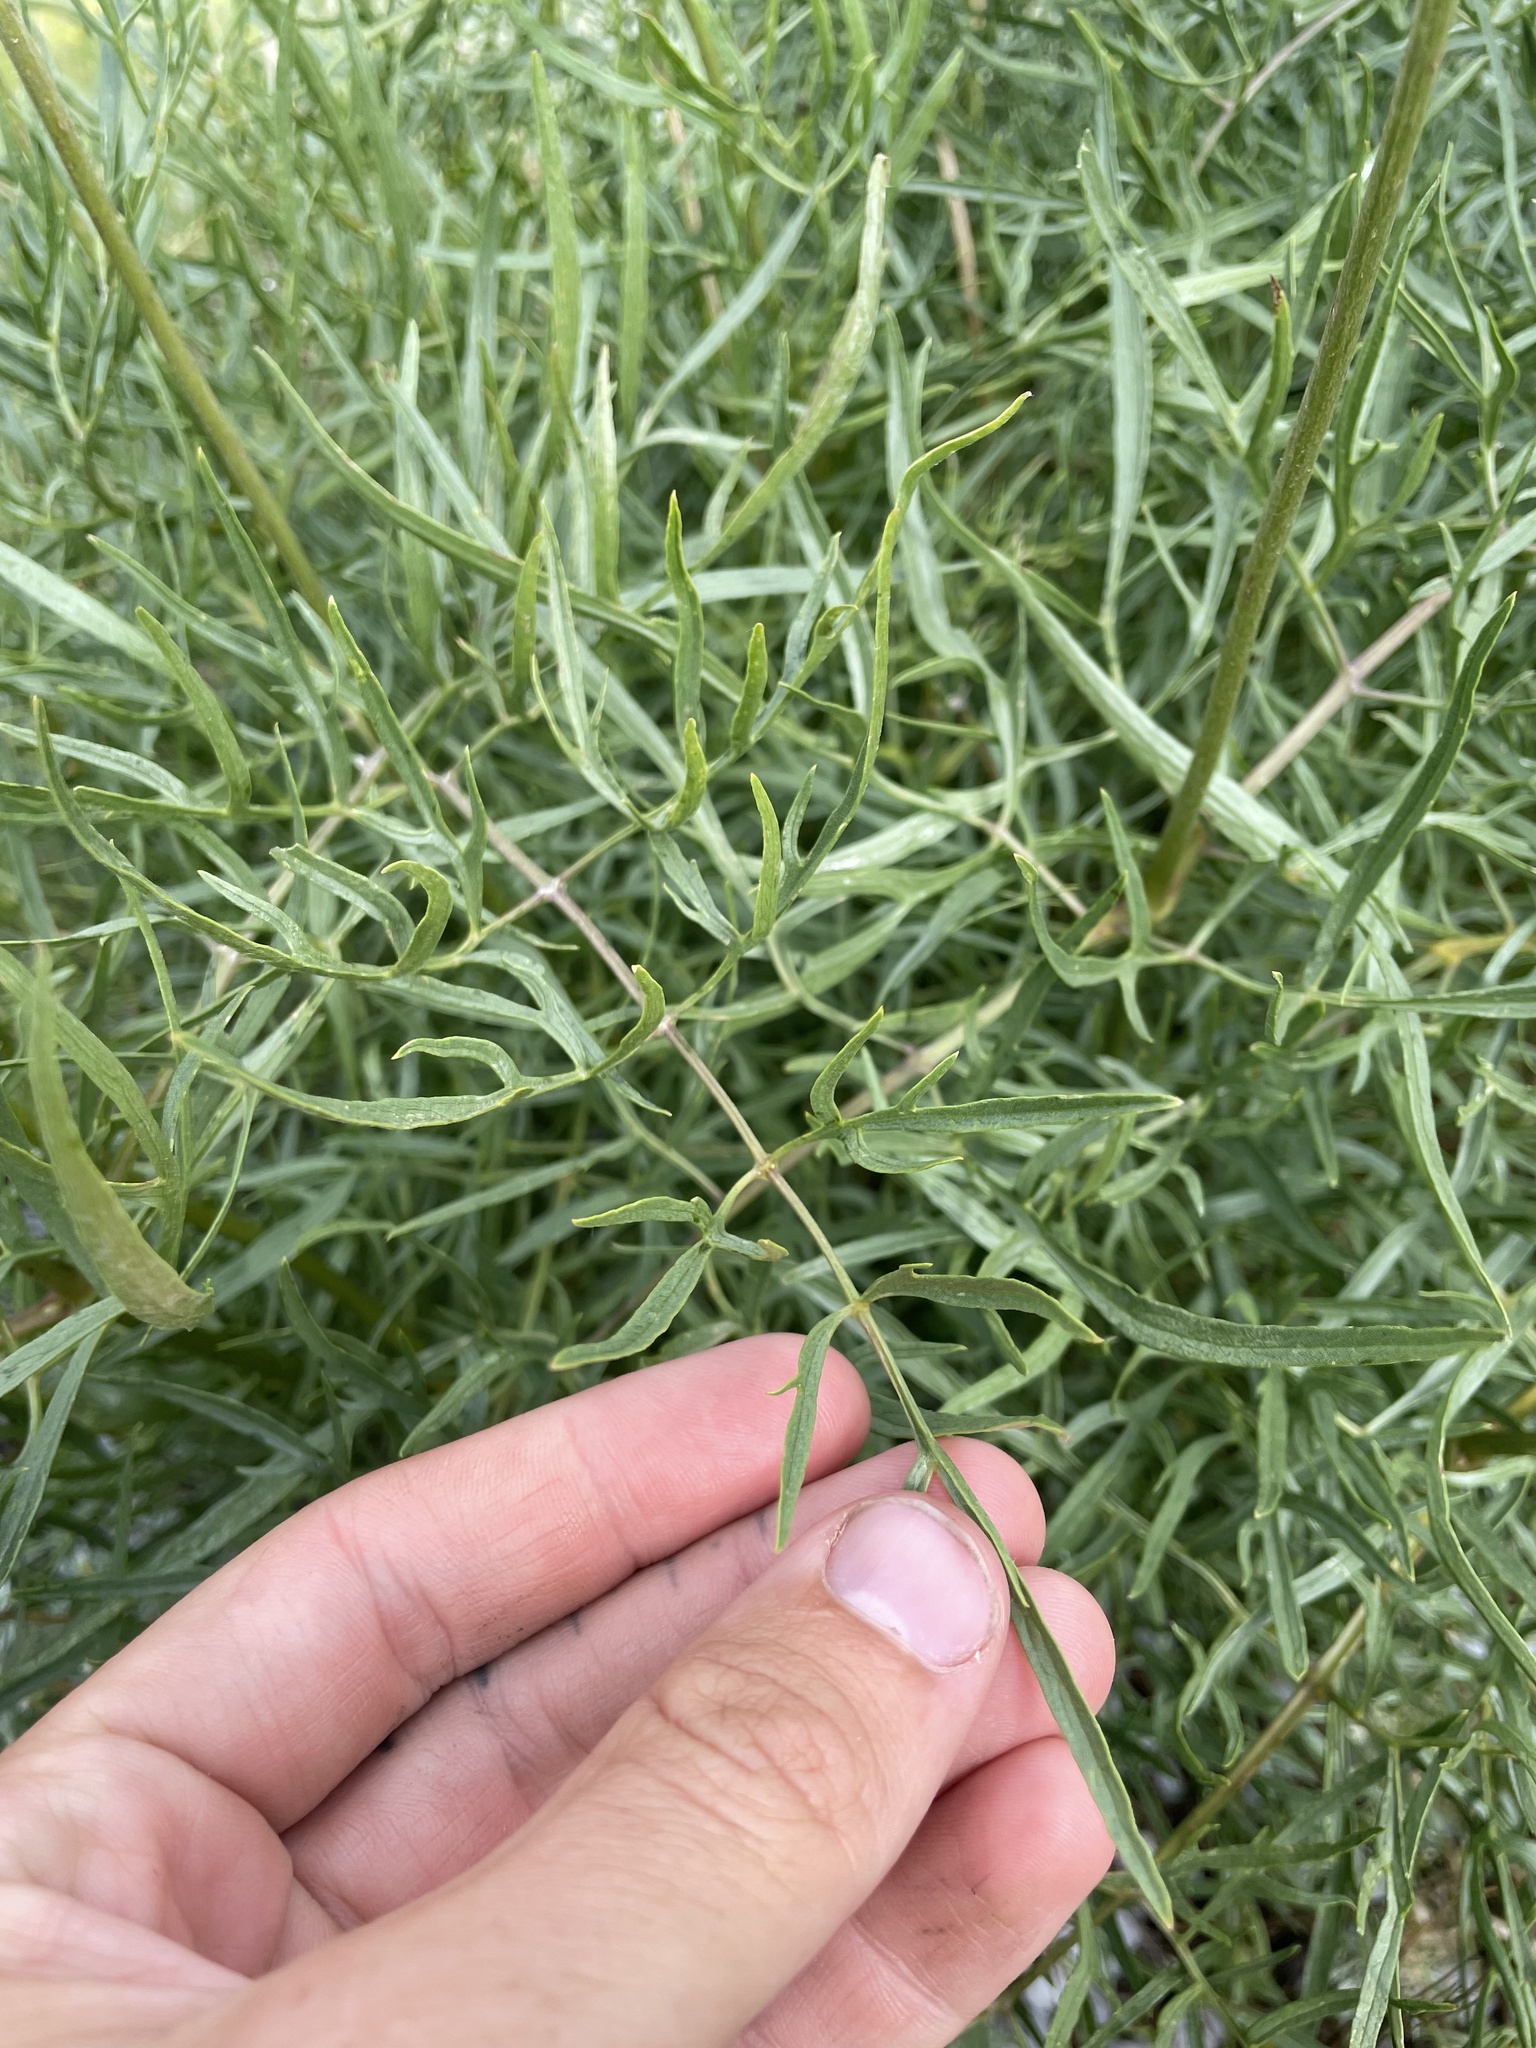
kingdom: Plantae
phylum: Tracheophyta
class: Magnoliopsida
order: Ranunculales
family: Ranunculaceae
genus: Clematis
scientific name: Clematis hirsutissima
